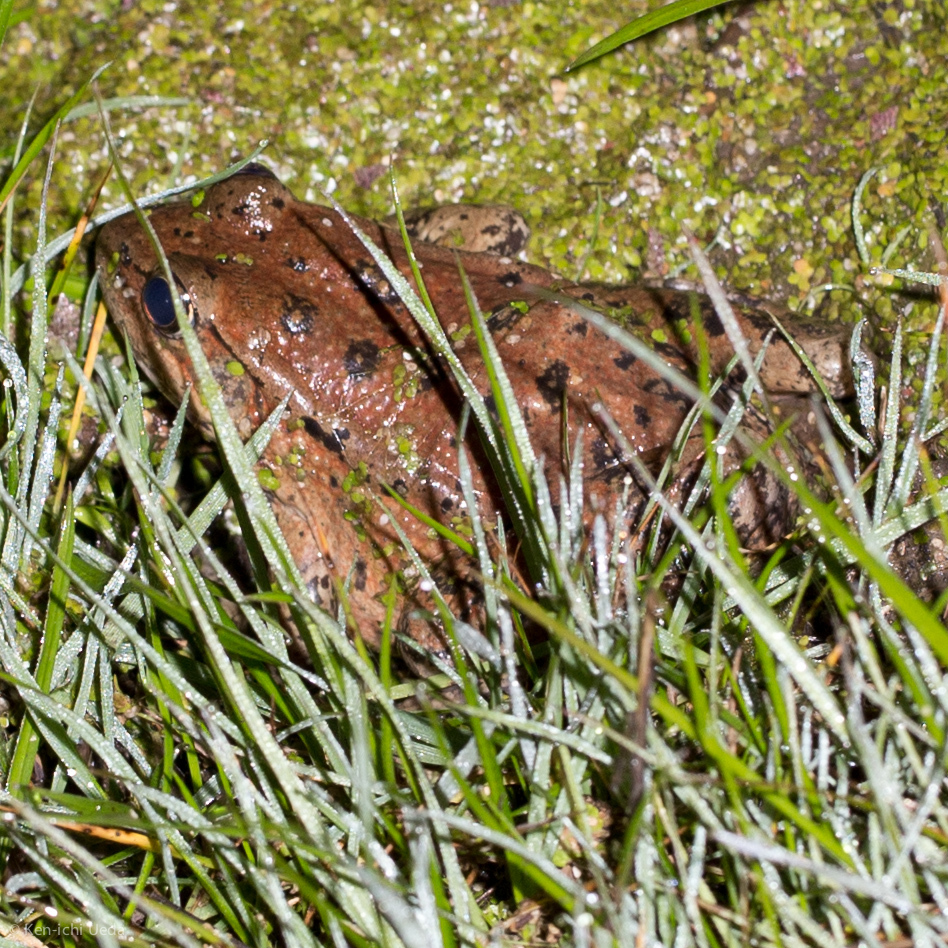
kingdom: Animalia
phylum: Chordata
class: Amphibia
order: Anura
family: Ranidae
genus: Rana
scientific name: Rana draytonii
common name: California red-legged frog
